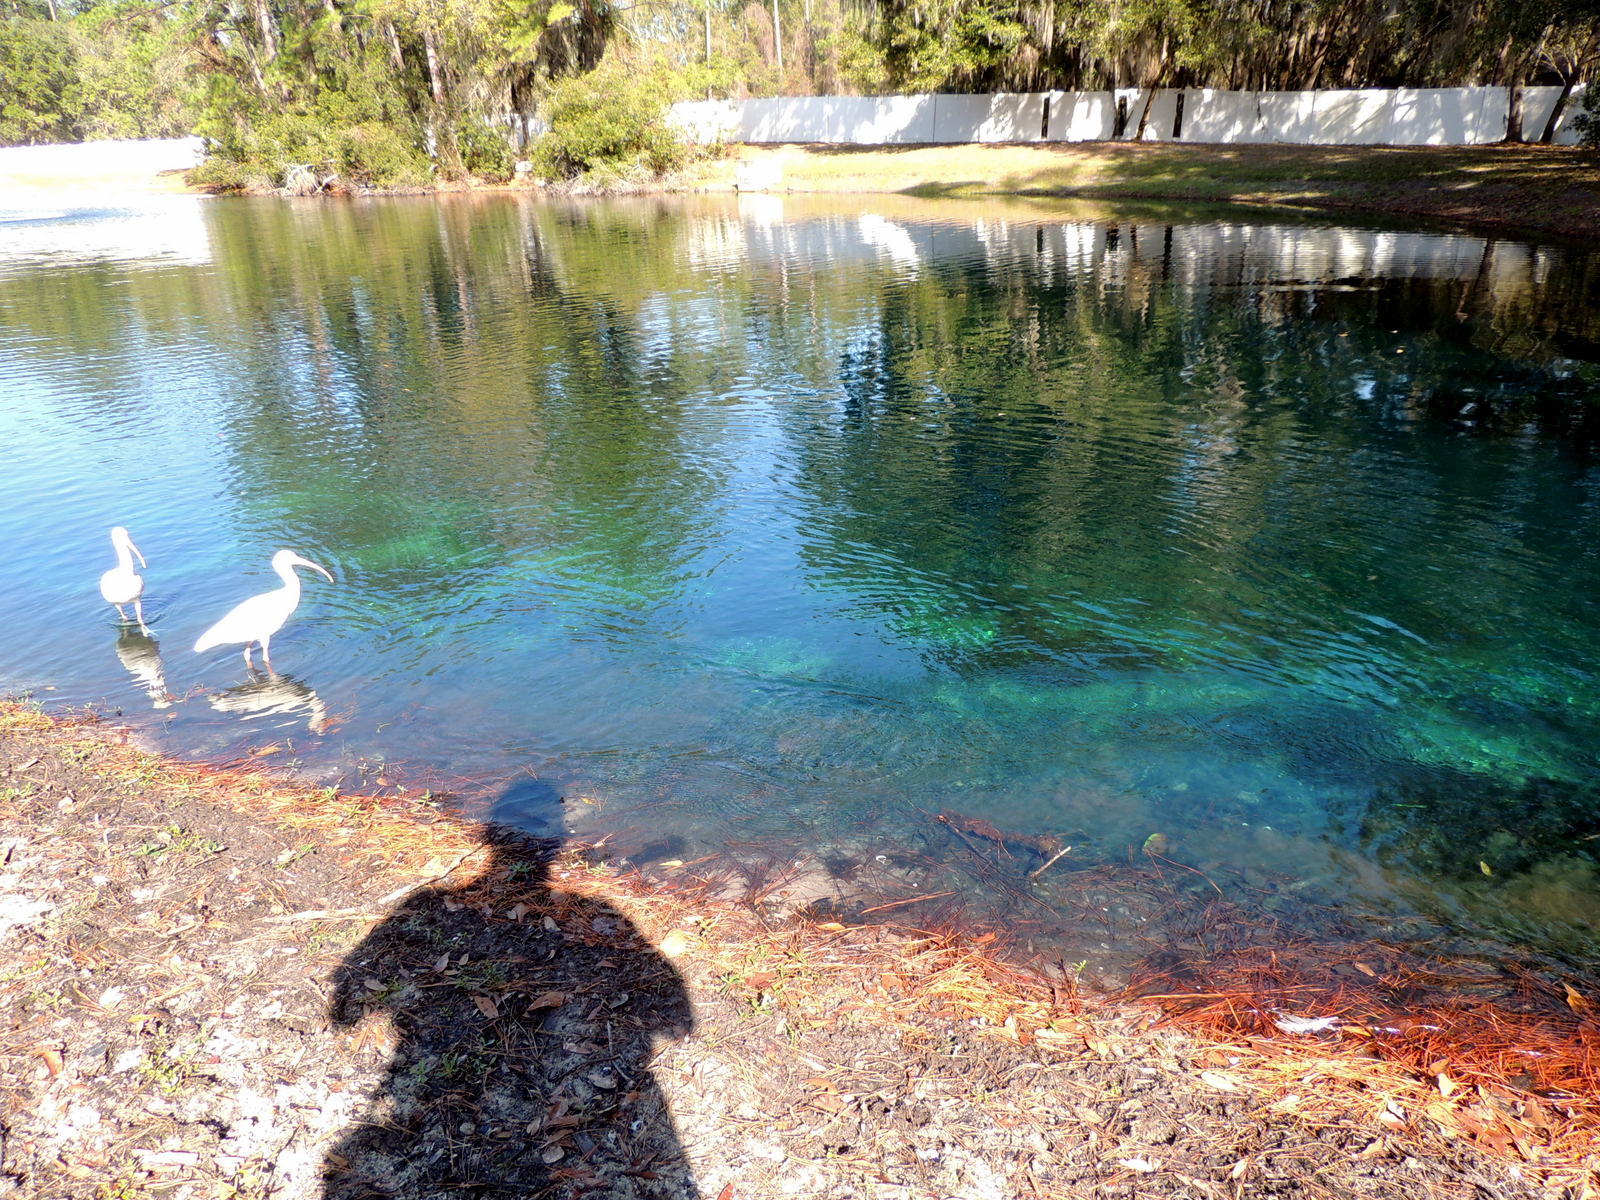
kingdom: Animalia
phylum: Chordata
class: Aves
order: Pelecaniformes
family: Threskiornithidae
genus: Eudocimus
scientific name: Eudocimus albus
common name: White ibis
